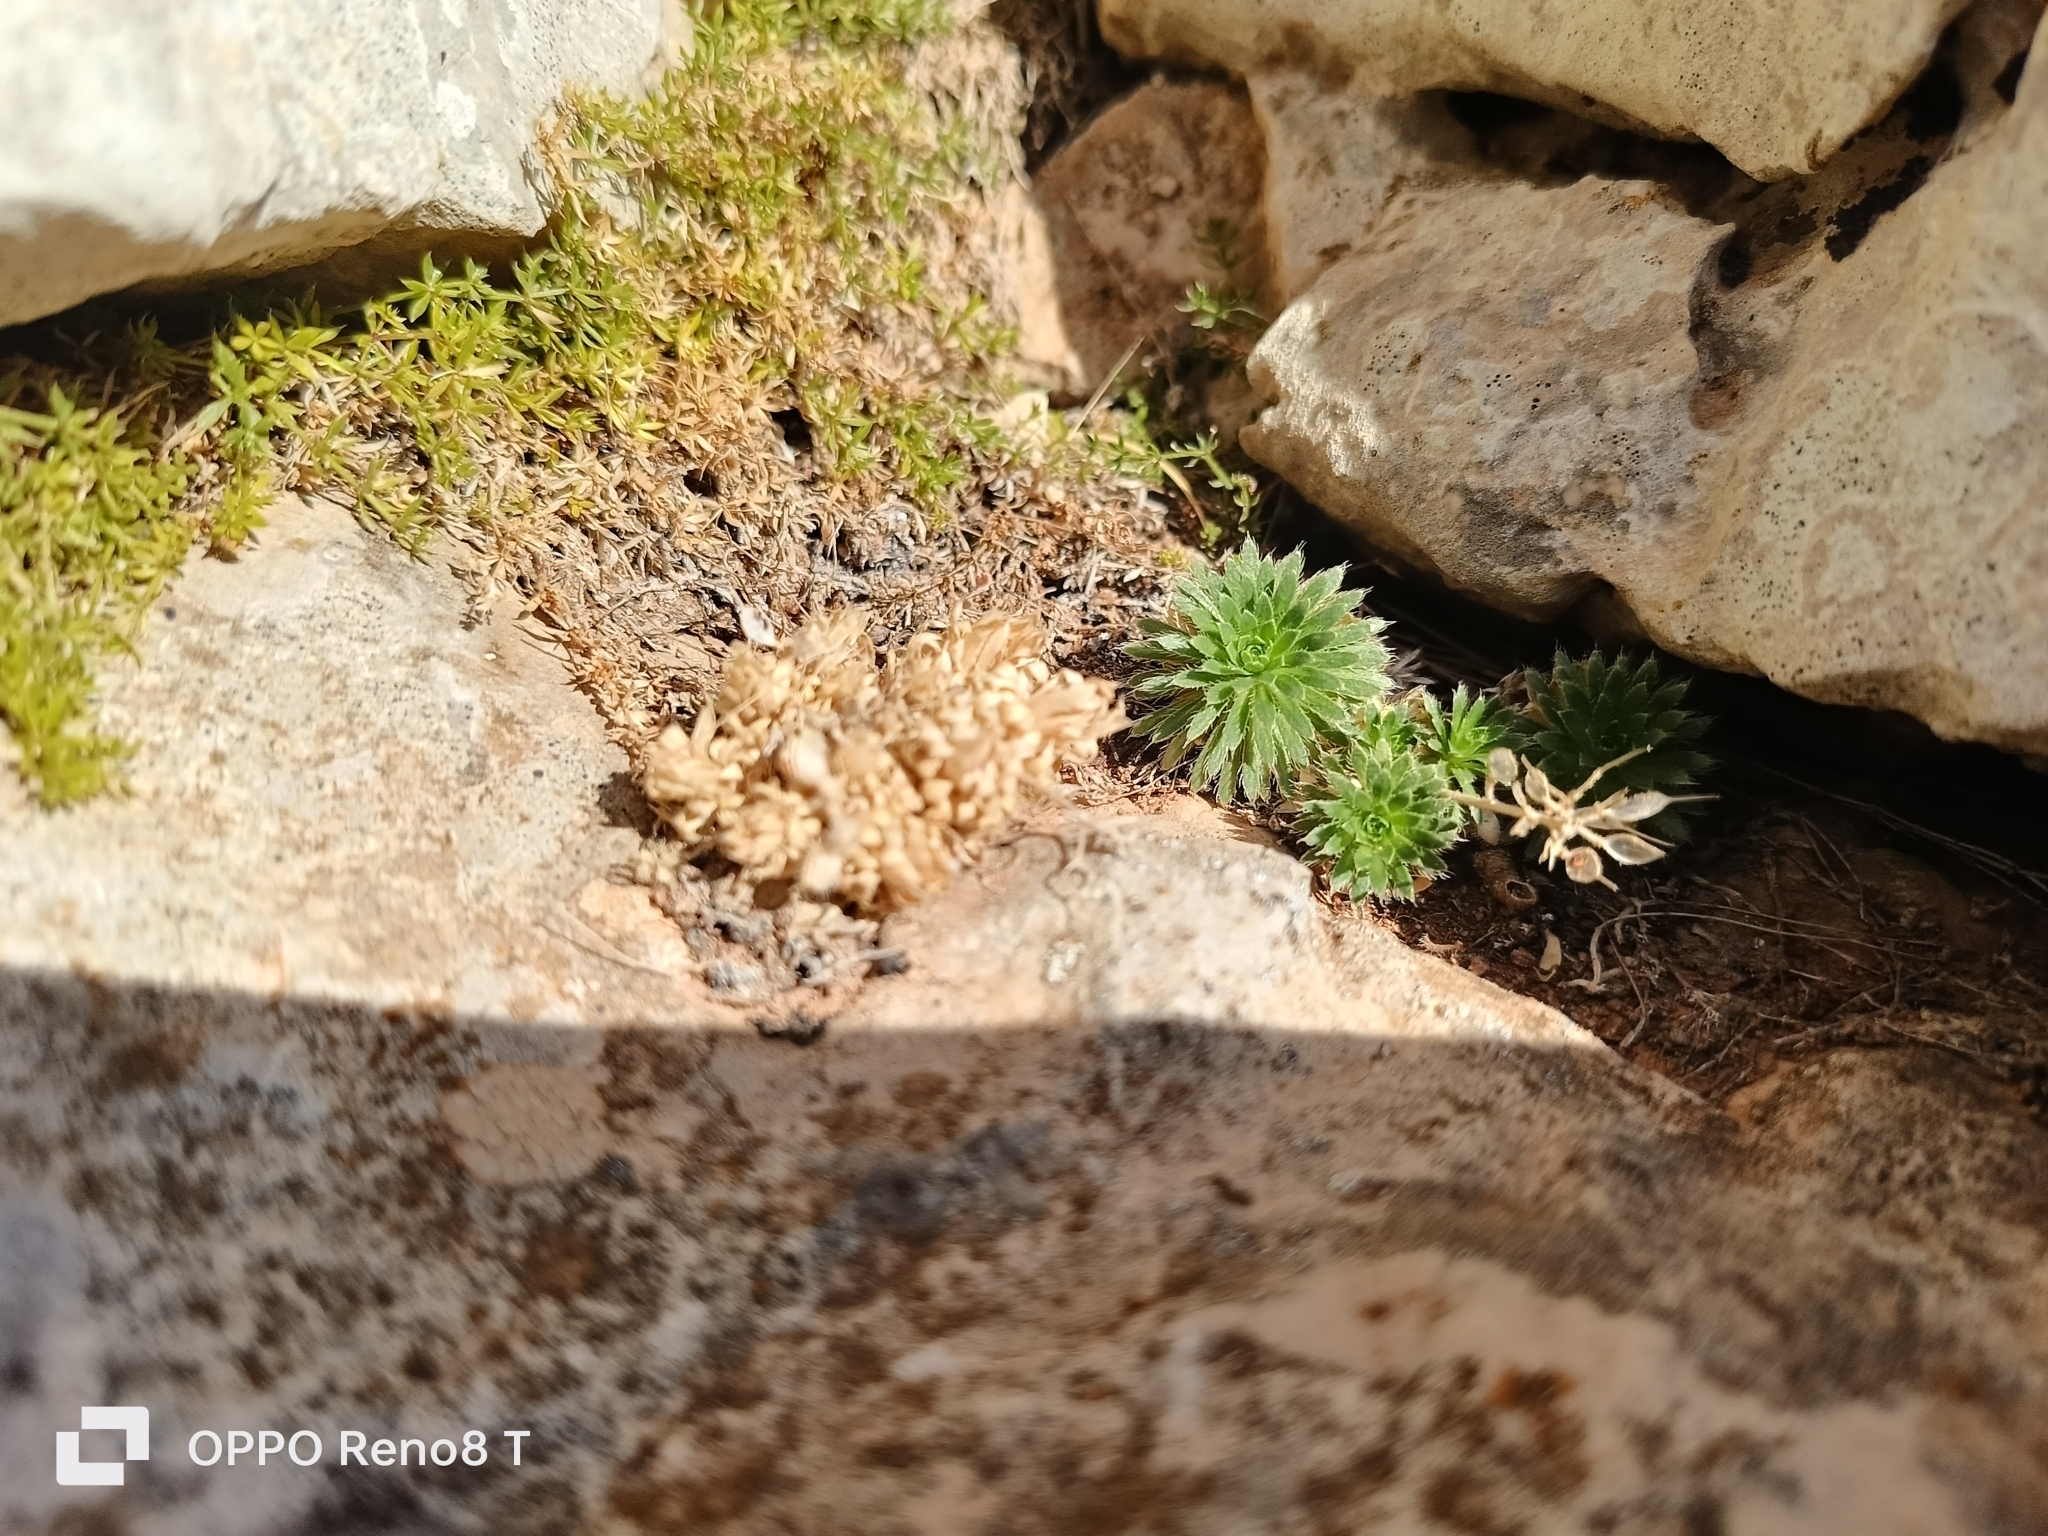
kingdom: Plantae
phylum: Tracheophyta
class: Magnoliopsida
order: Brassicales
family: Brassicaceae
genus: Draba
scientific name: Draba hispanica
